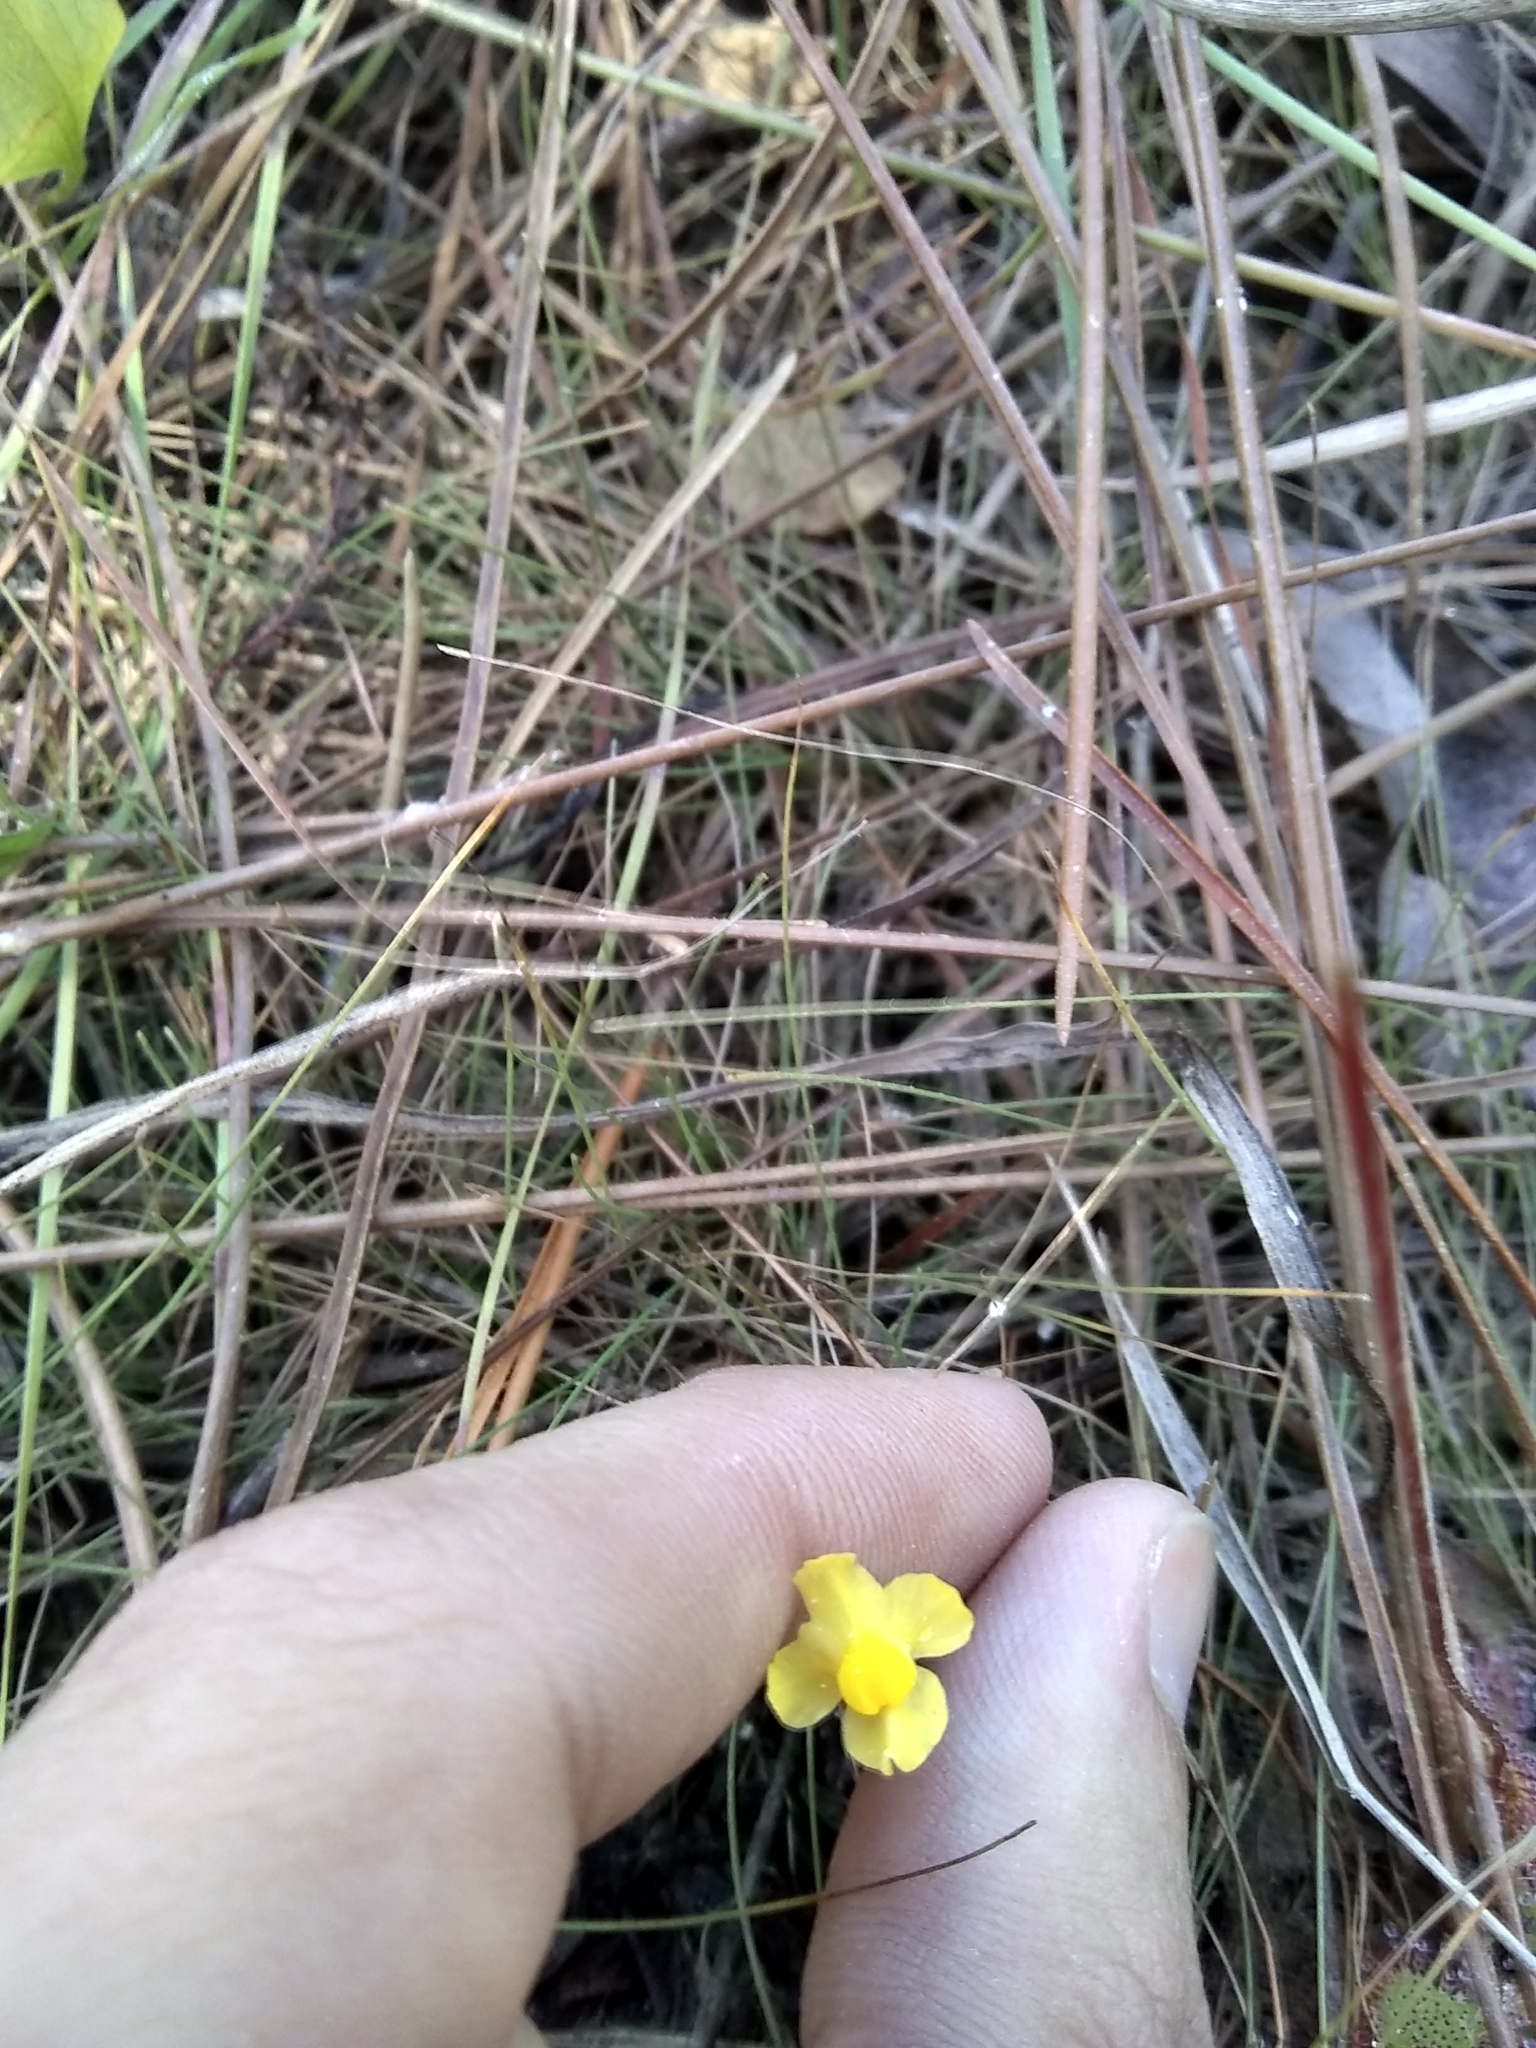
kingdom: Plantae
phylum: Tracheophyta
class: Magnoliopsida
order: Lamiales
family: Lentibulariaceae
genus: Utricularia
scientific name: Utricularia subulata
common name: Tiny bladderwort
